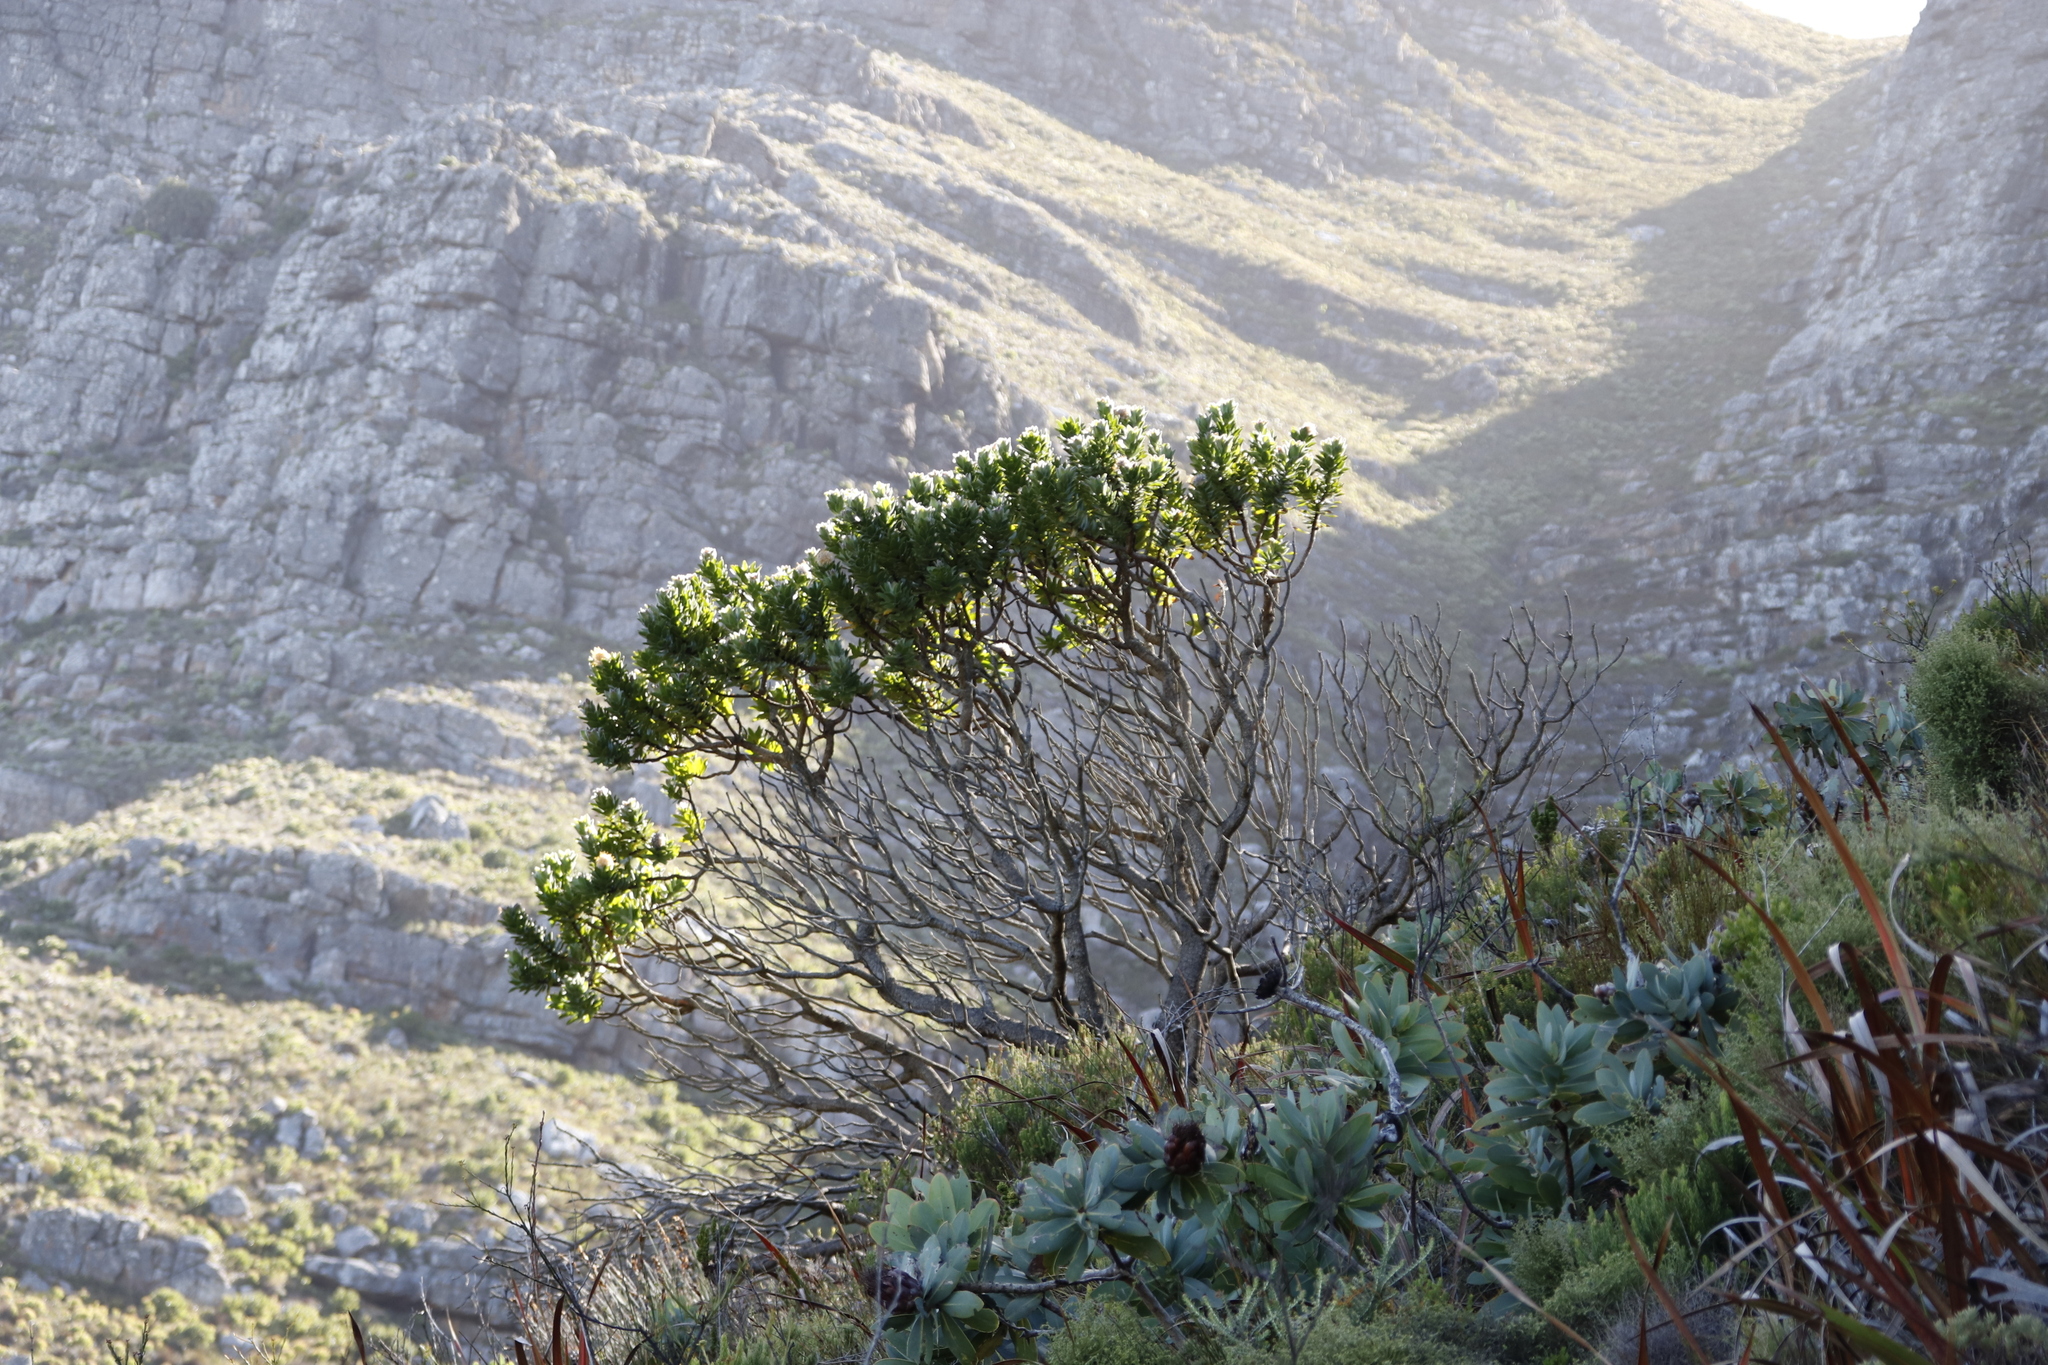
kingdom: Plantae
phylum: Tracheophyta
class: Magnoliopsida
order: Proteales
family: Proteaceae
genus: Leucospermum
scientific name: Leucospermum conocarpodendron
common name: Tree pincushion
